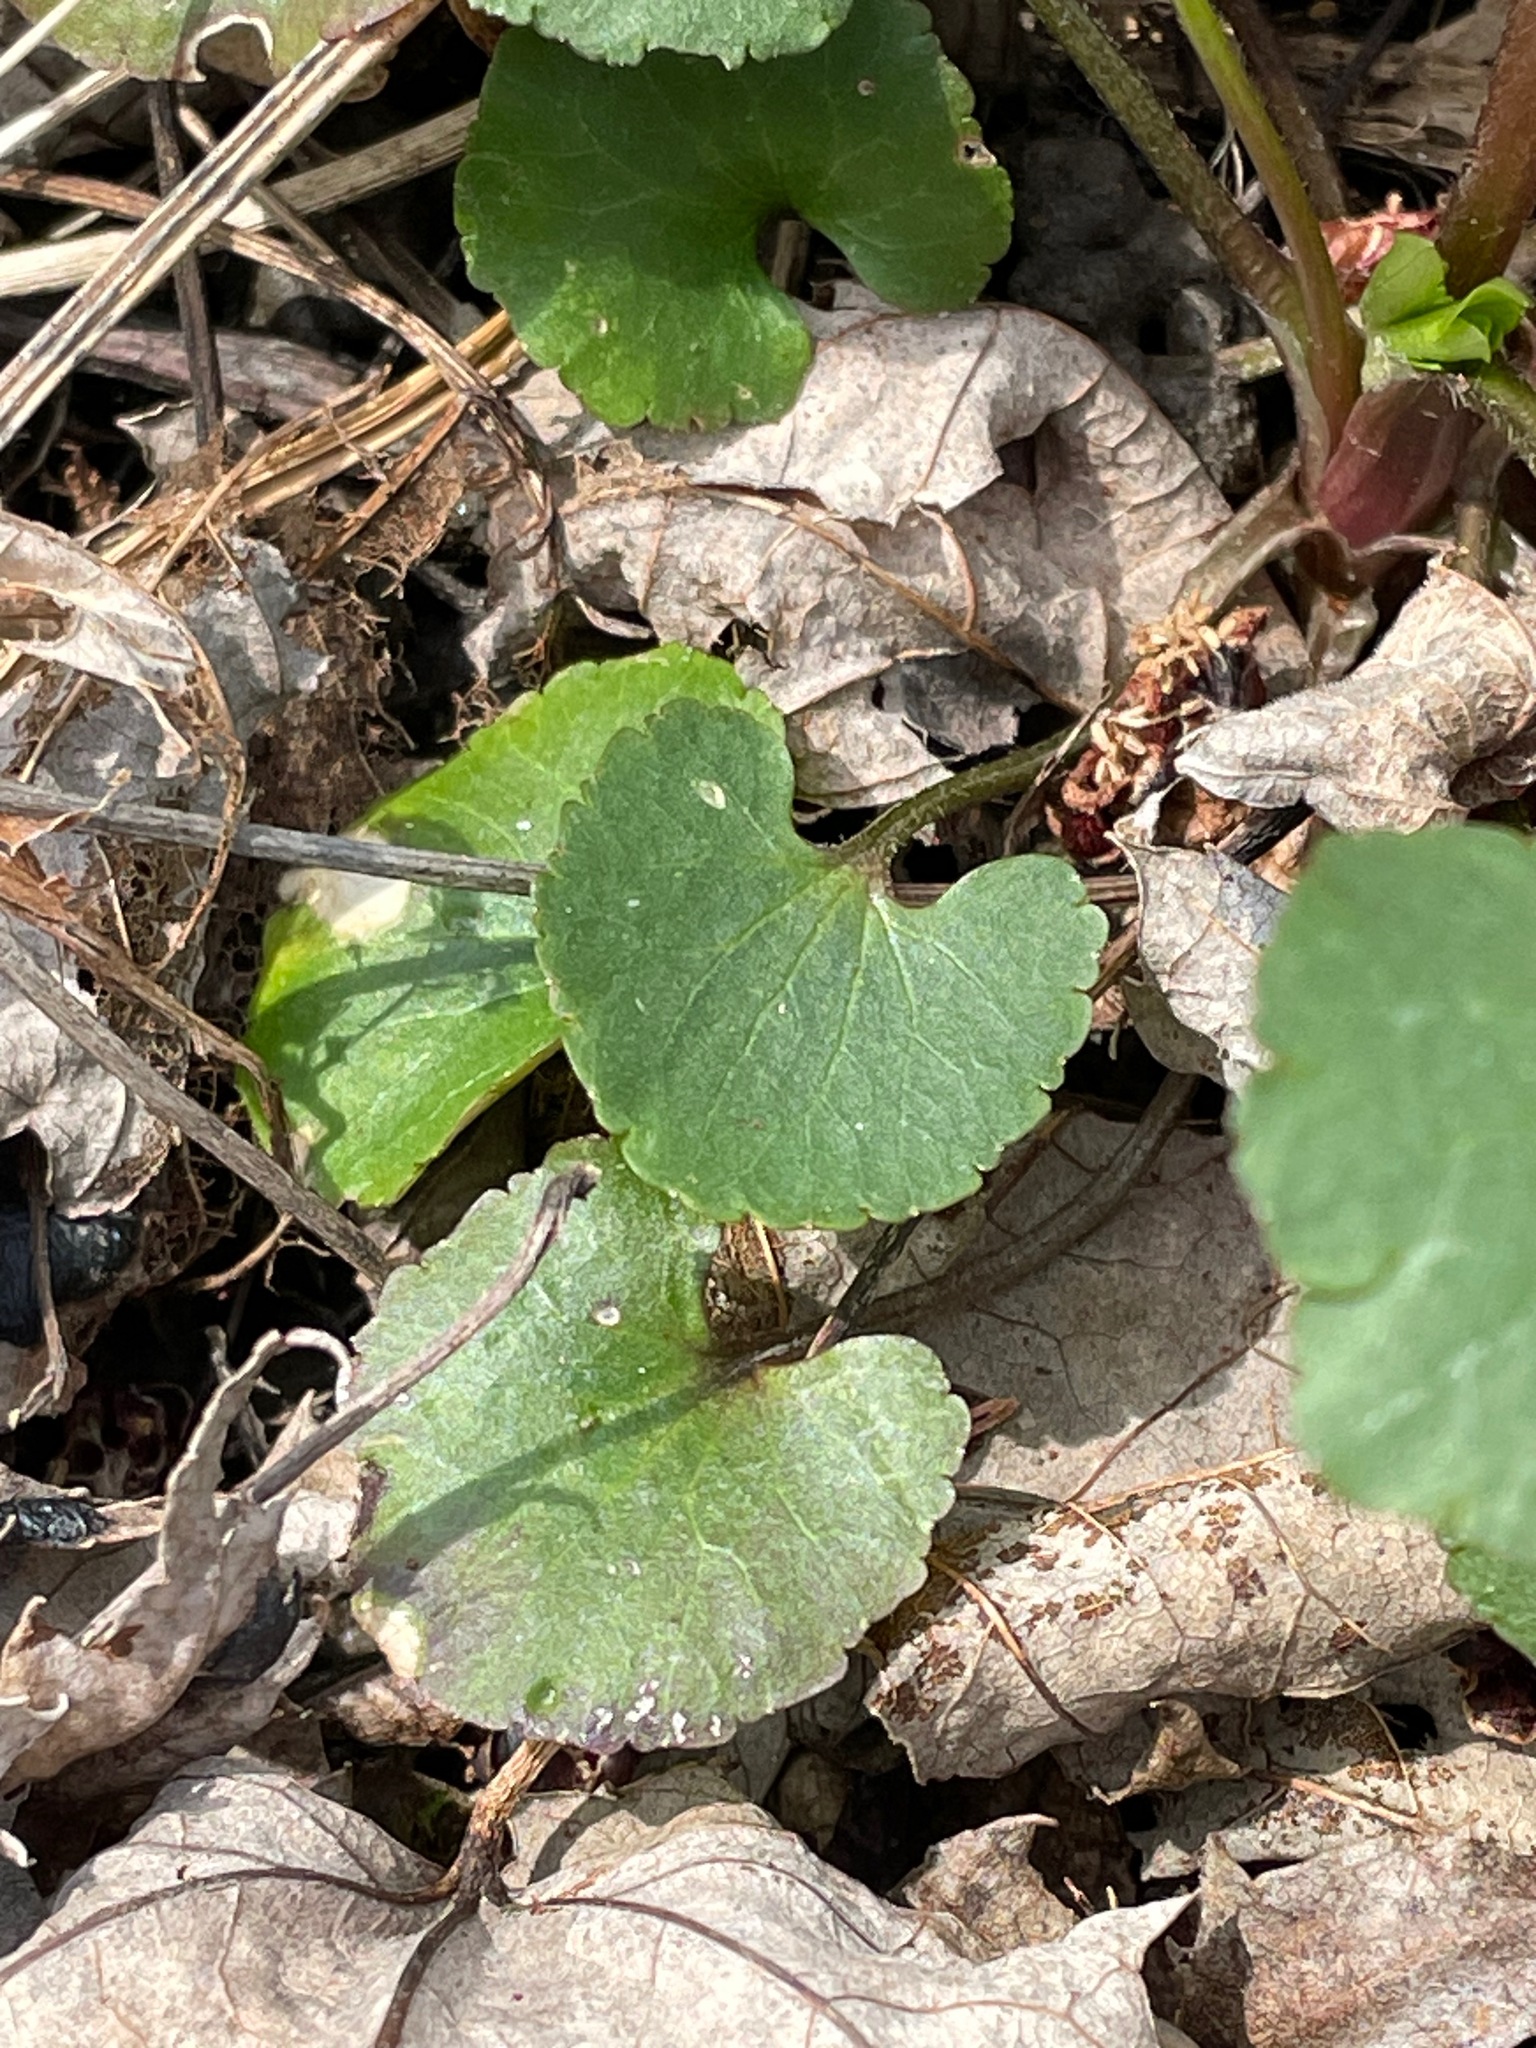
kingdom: Plantae
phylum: Tracheophyta
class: Magnoliopsida
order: Ranunculales
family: Ranunculaceae
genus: Ranunculus
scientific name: Ranunculus abortivus
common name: Early wood buttercup
